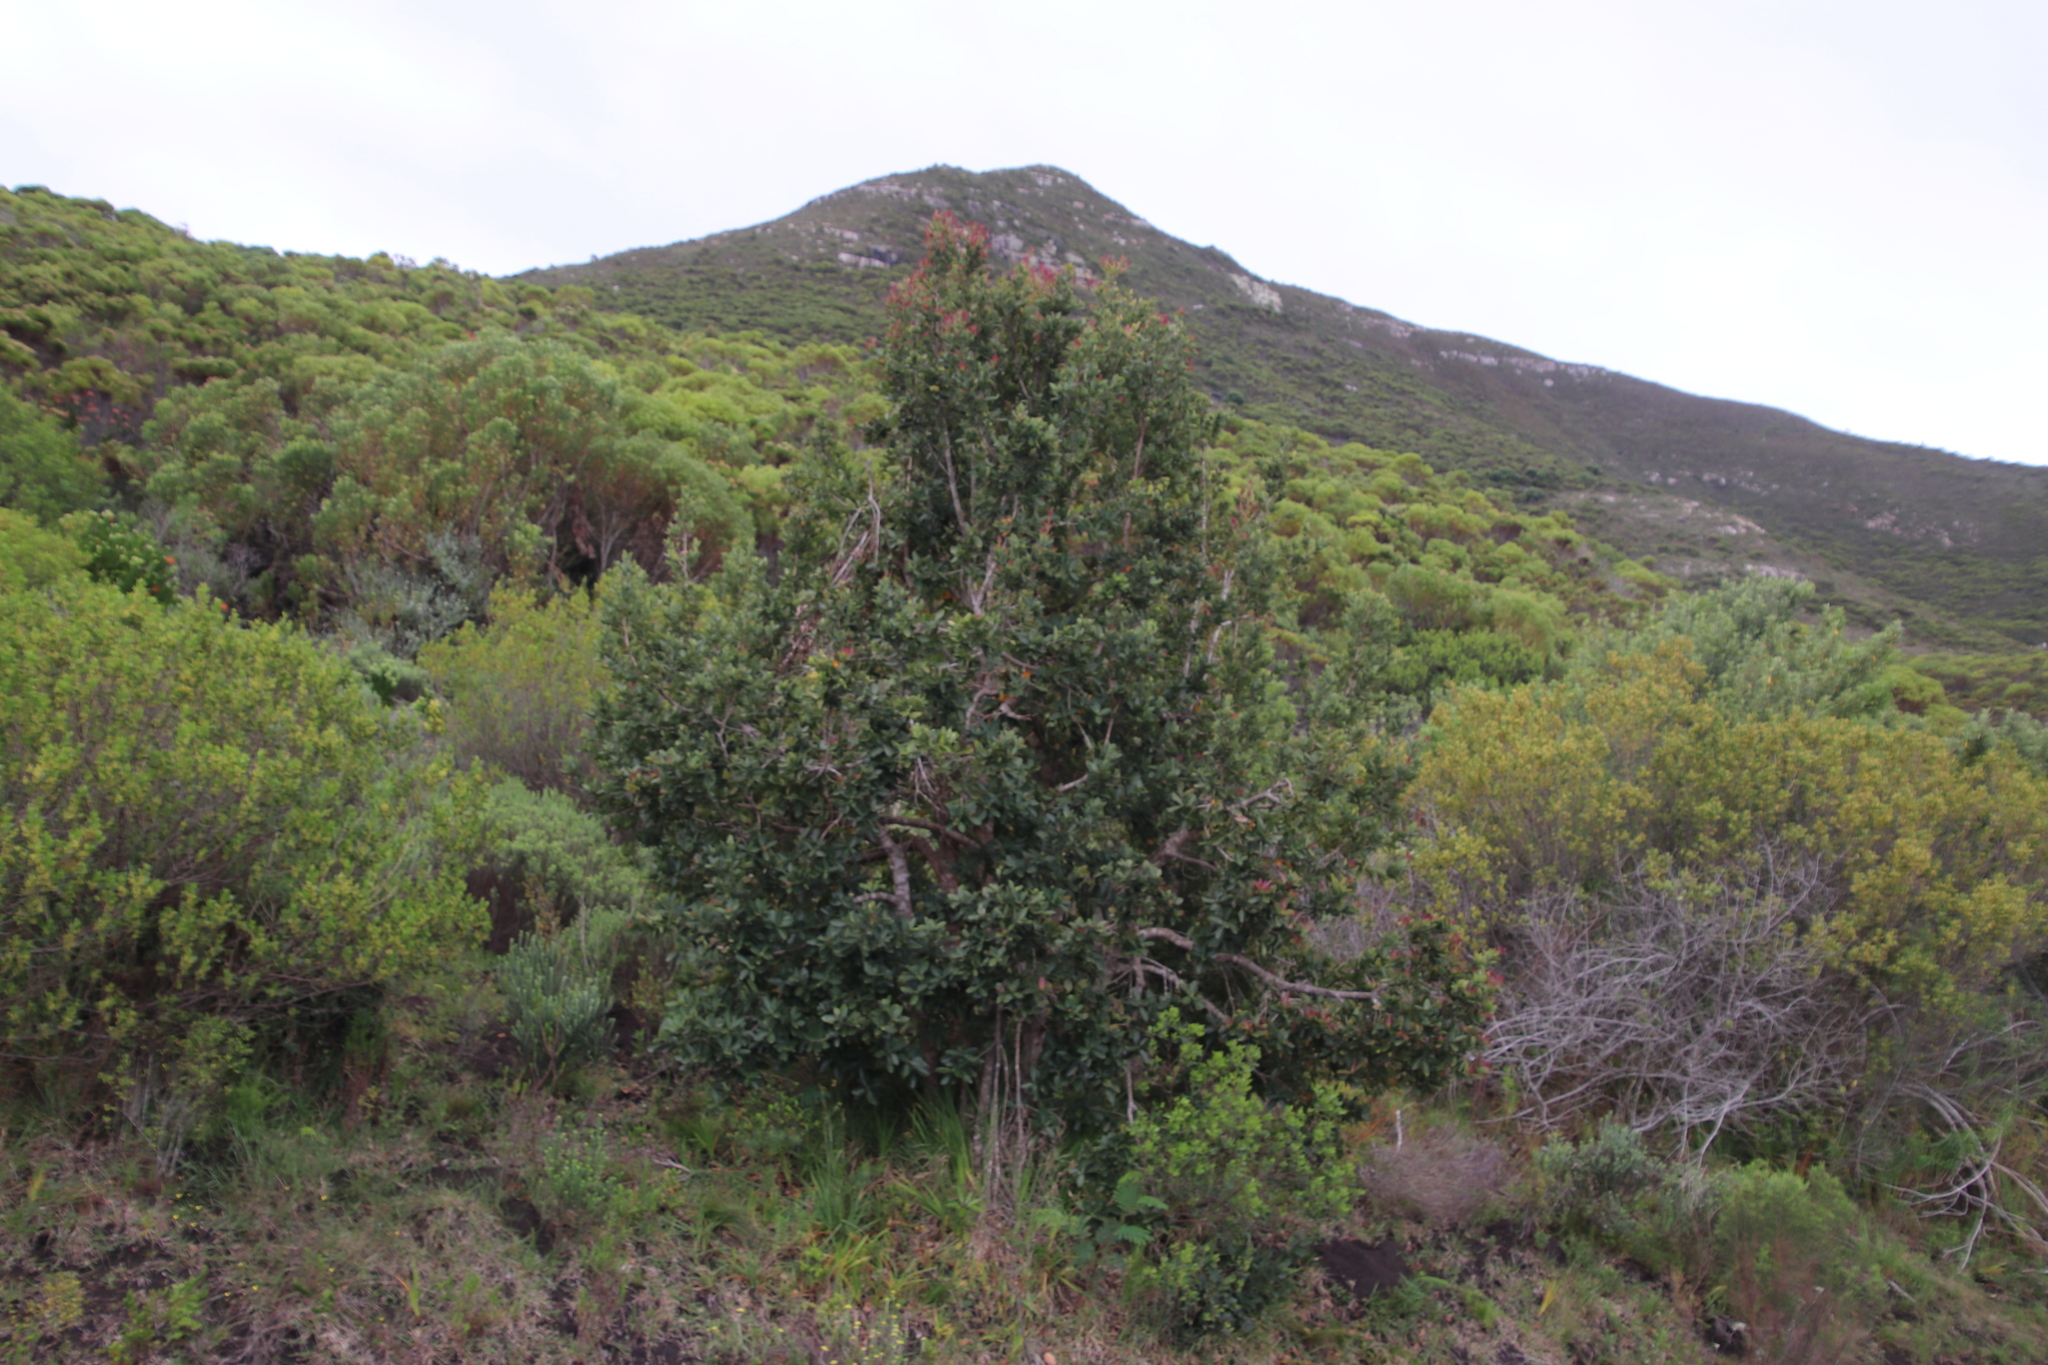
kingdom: Plantae
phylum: Tracheophyta
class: Magnoliopsida
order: Myrtales
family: Myrtaceae
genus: Syzygium
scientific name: Syzygium cordatum
